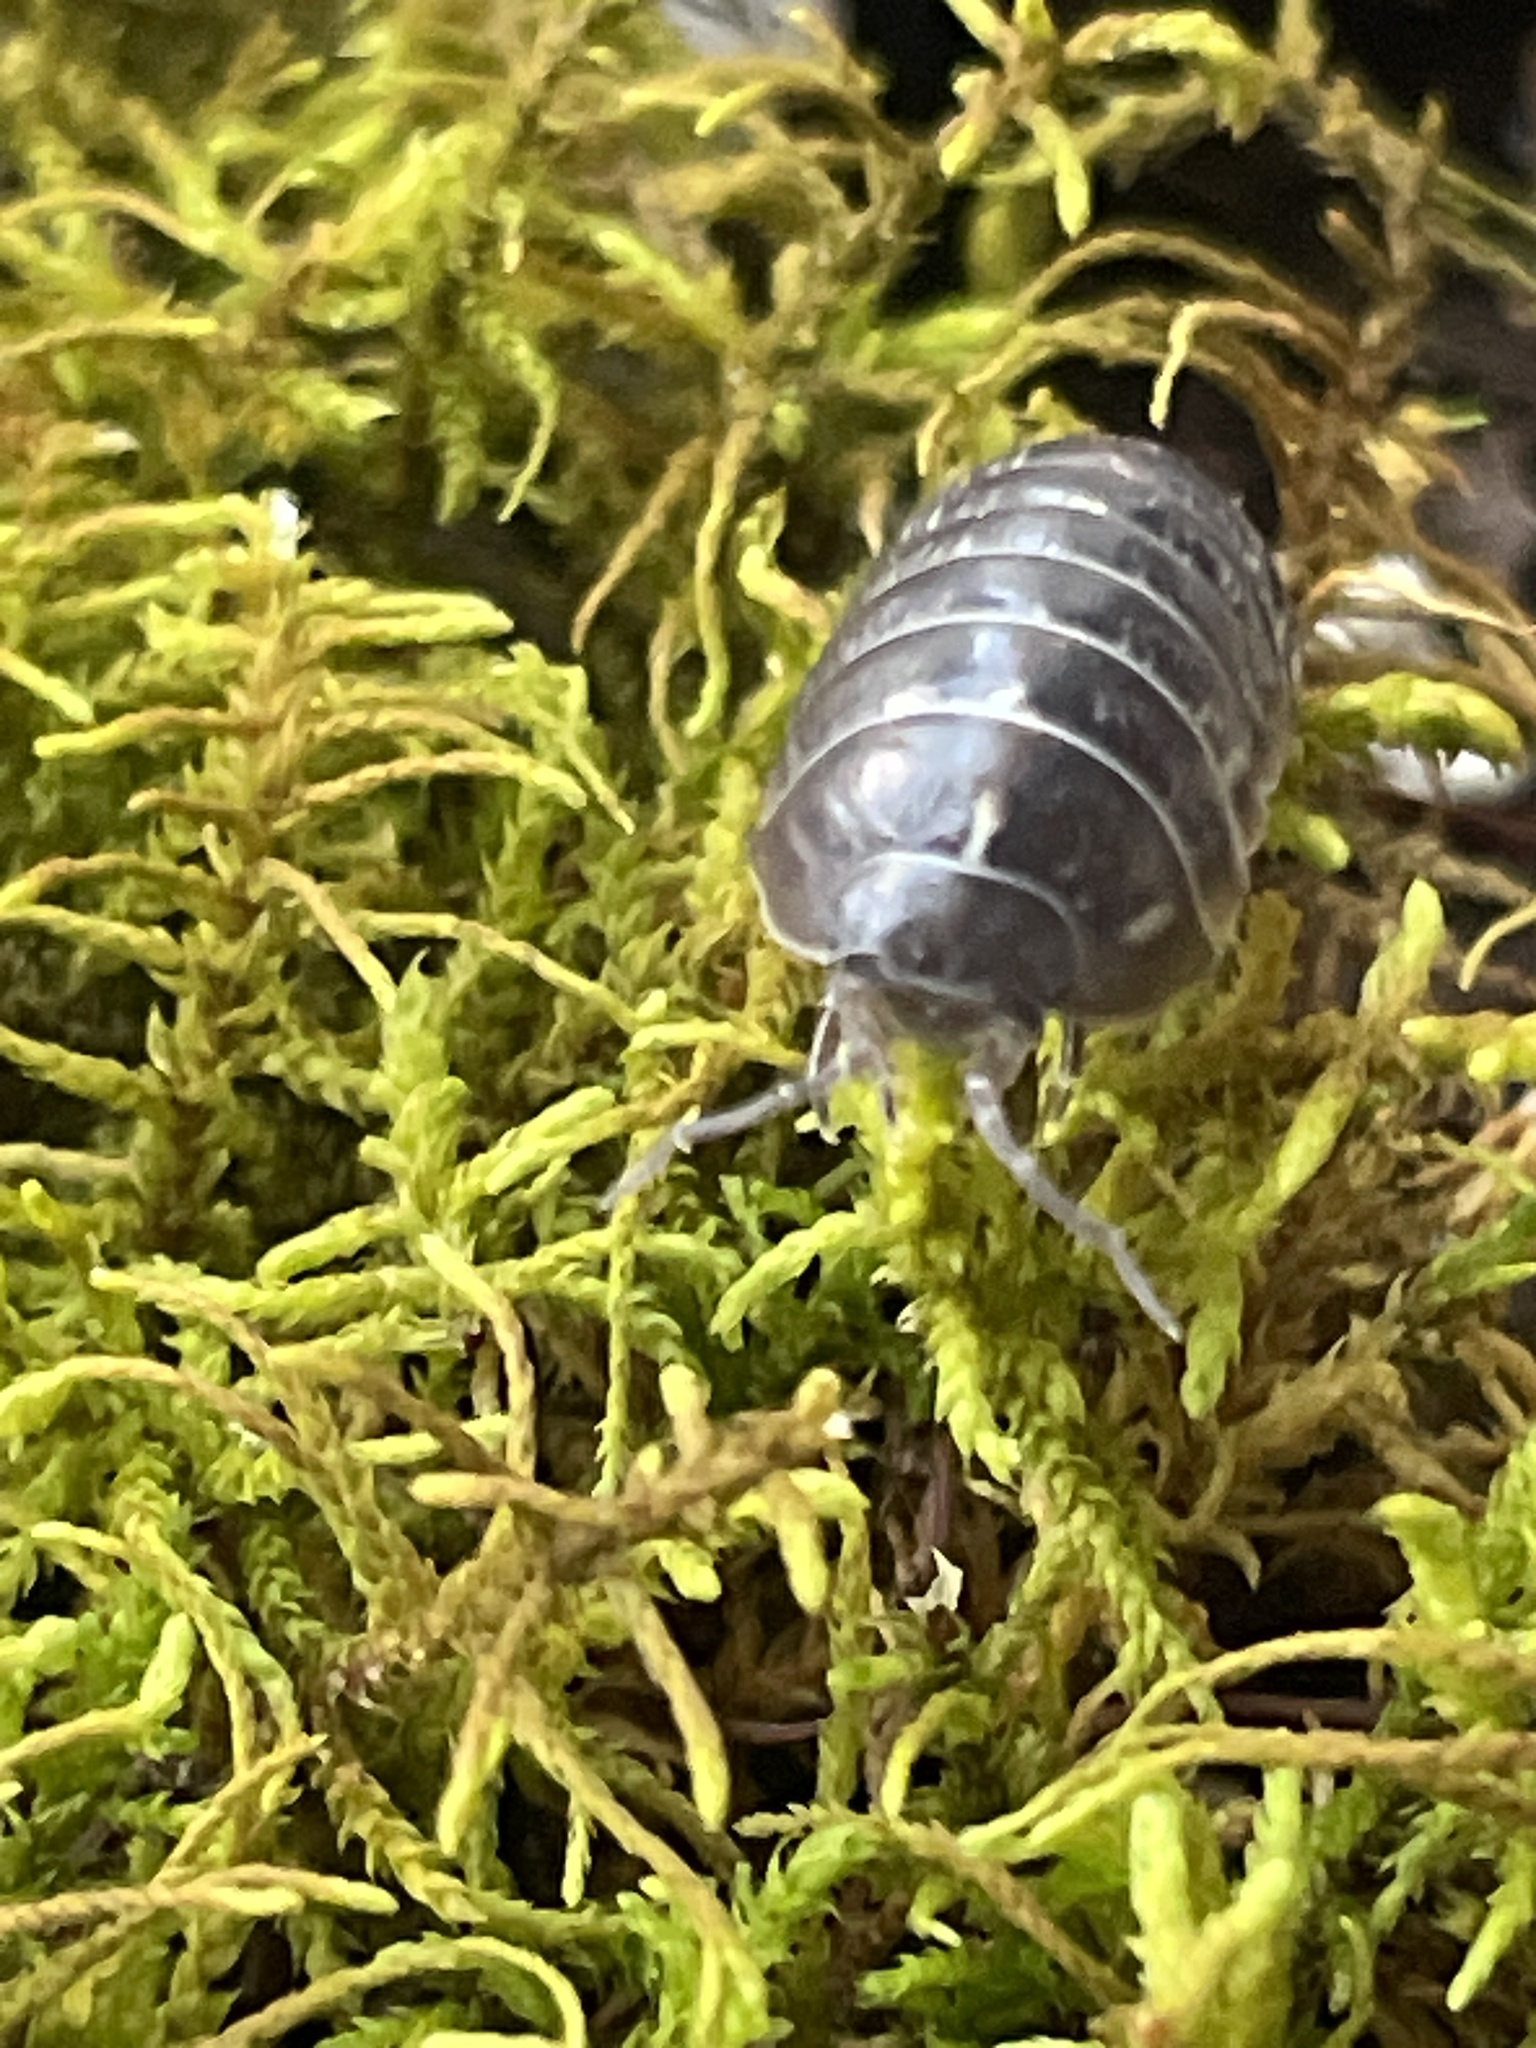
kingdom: Animalia
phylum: Arthropoda
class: Malacostraca
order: Isopoda
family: Armadillidiidae
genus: Armadillidium
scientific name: Armadillidium vulgare
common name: Common pill woodlouse
